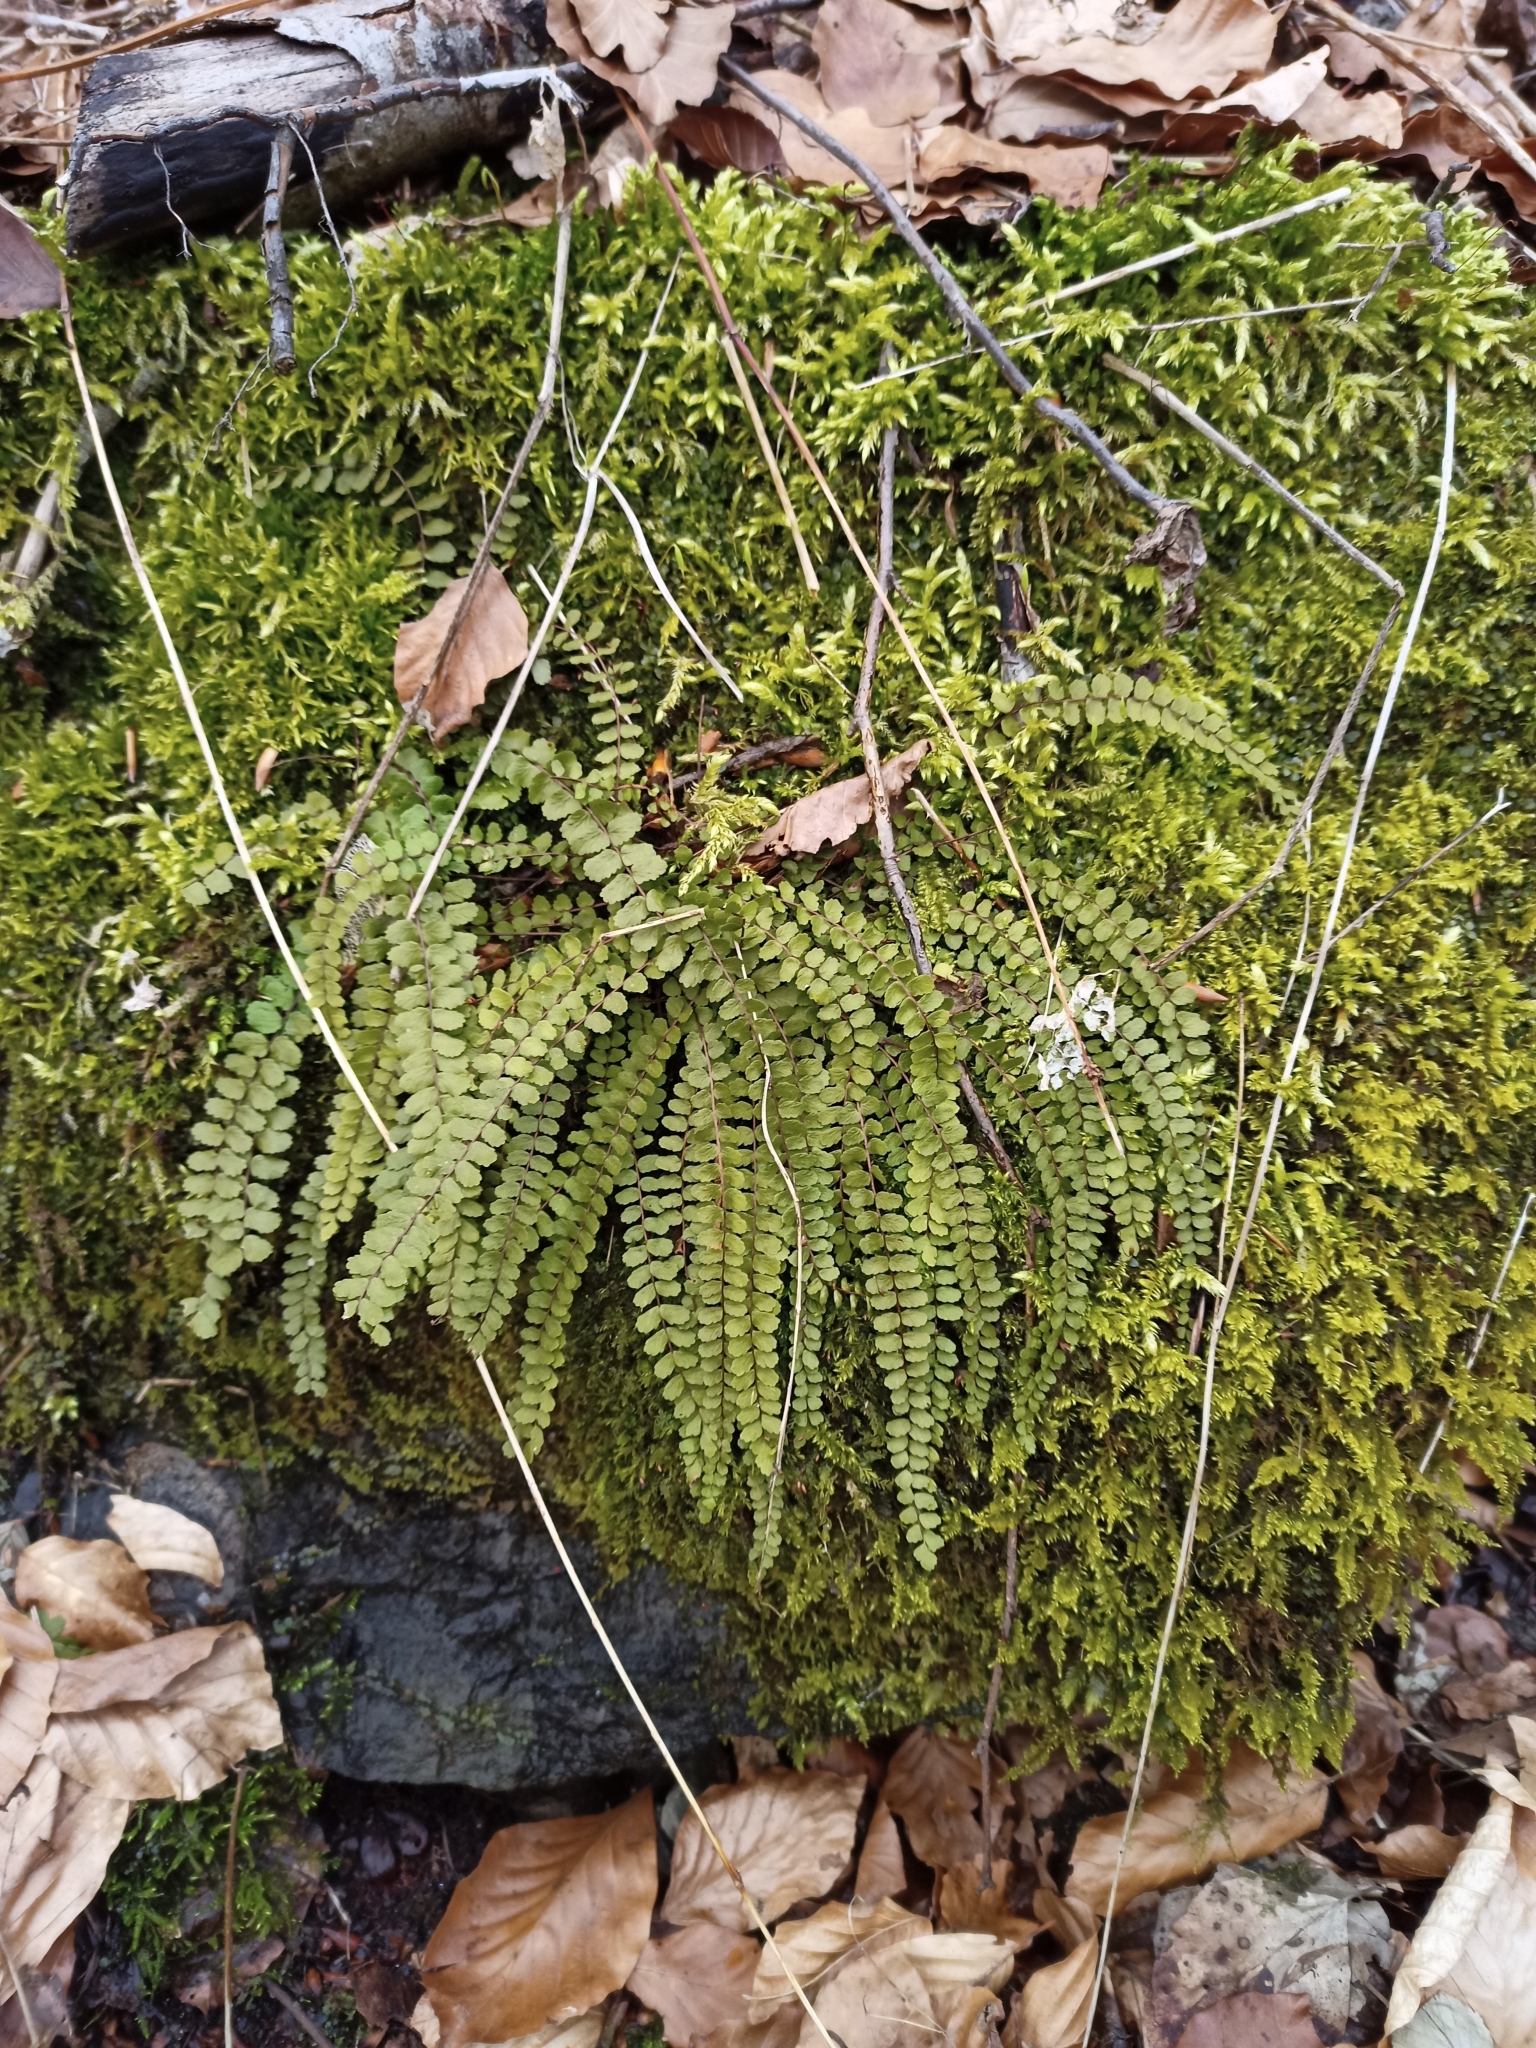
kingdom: Plantae
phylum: Tracheophyta
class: Polypodiopsida
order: Polypodiales
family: Aspleniaceae
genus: Asplenium
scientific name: Asplenium trichomanes
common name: Maidenhair spleenwort
